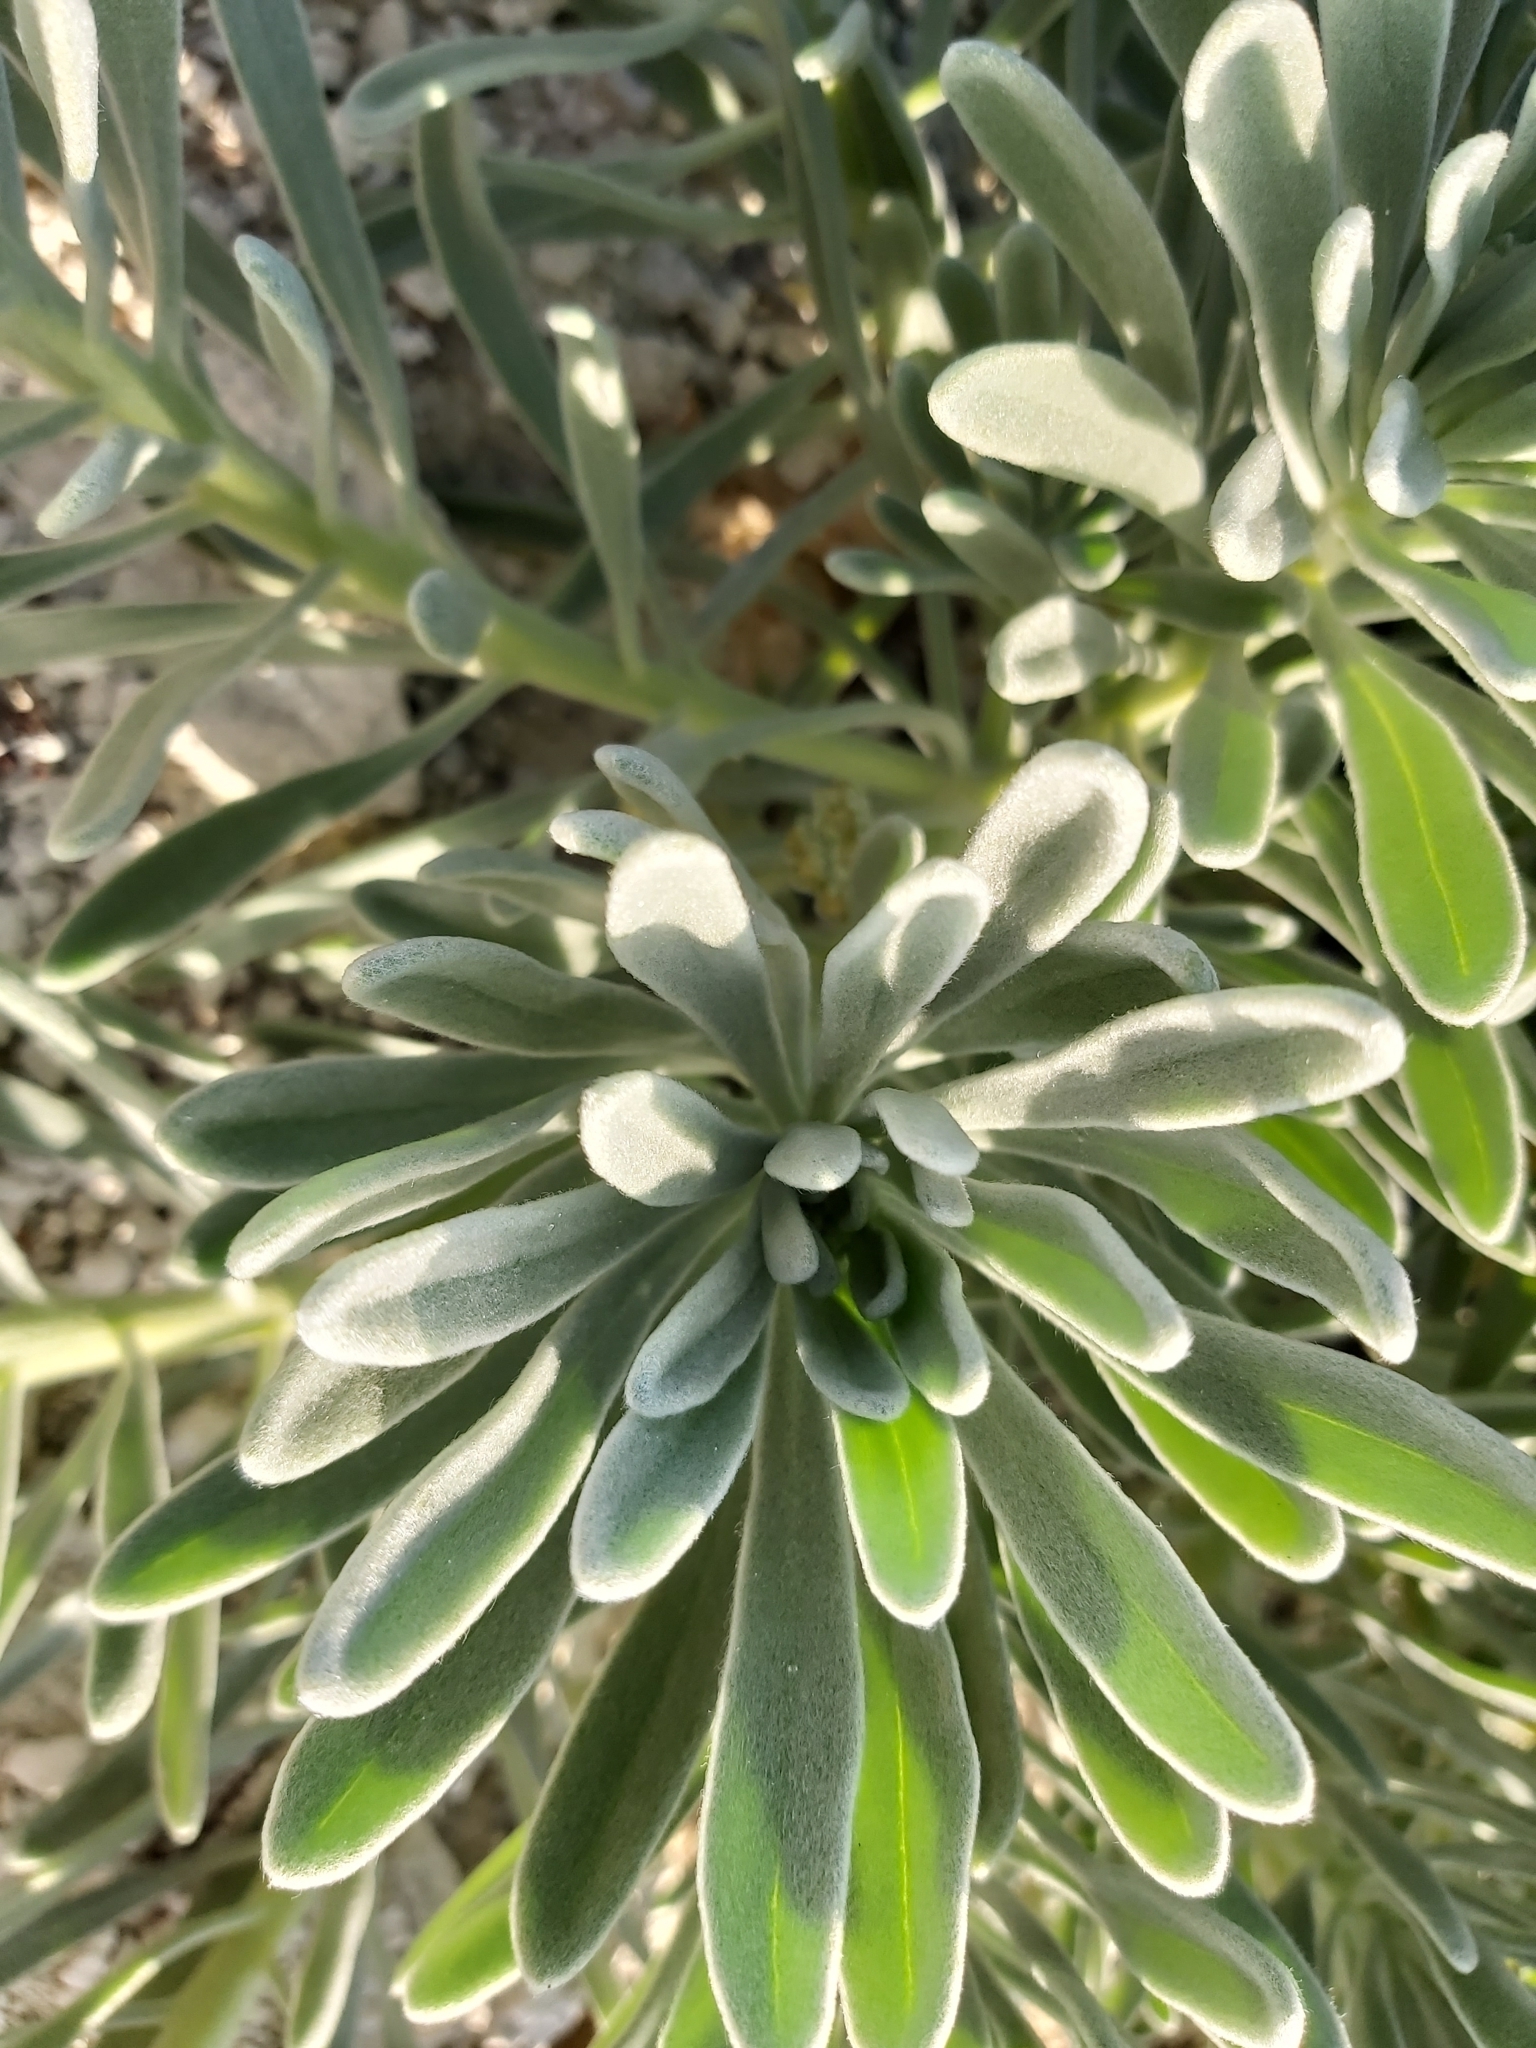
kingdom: Plantae
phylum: Tracheophyta
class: Magnoliopsida
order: Boraginales
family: Heliotropiaceae
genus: Tournefortia
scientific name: Tournefortia gnaphalodes
